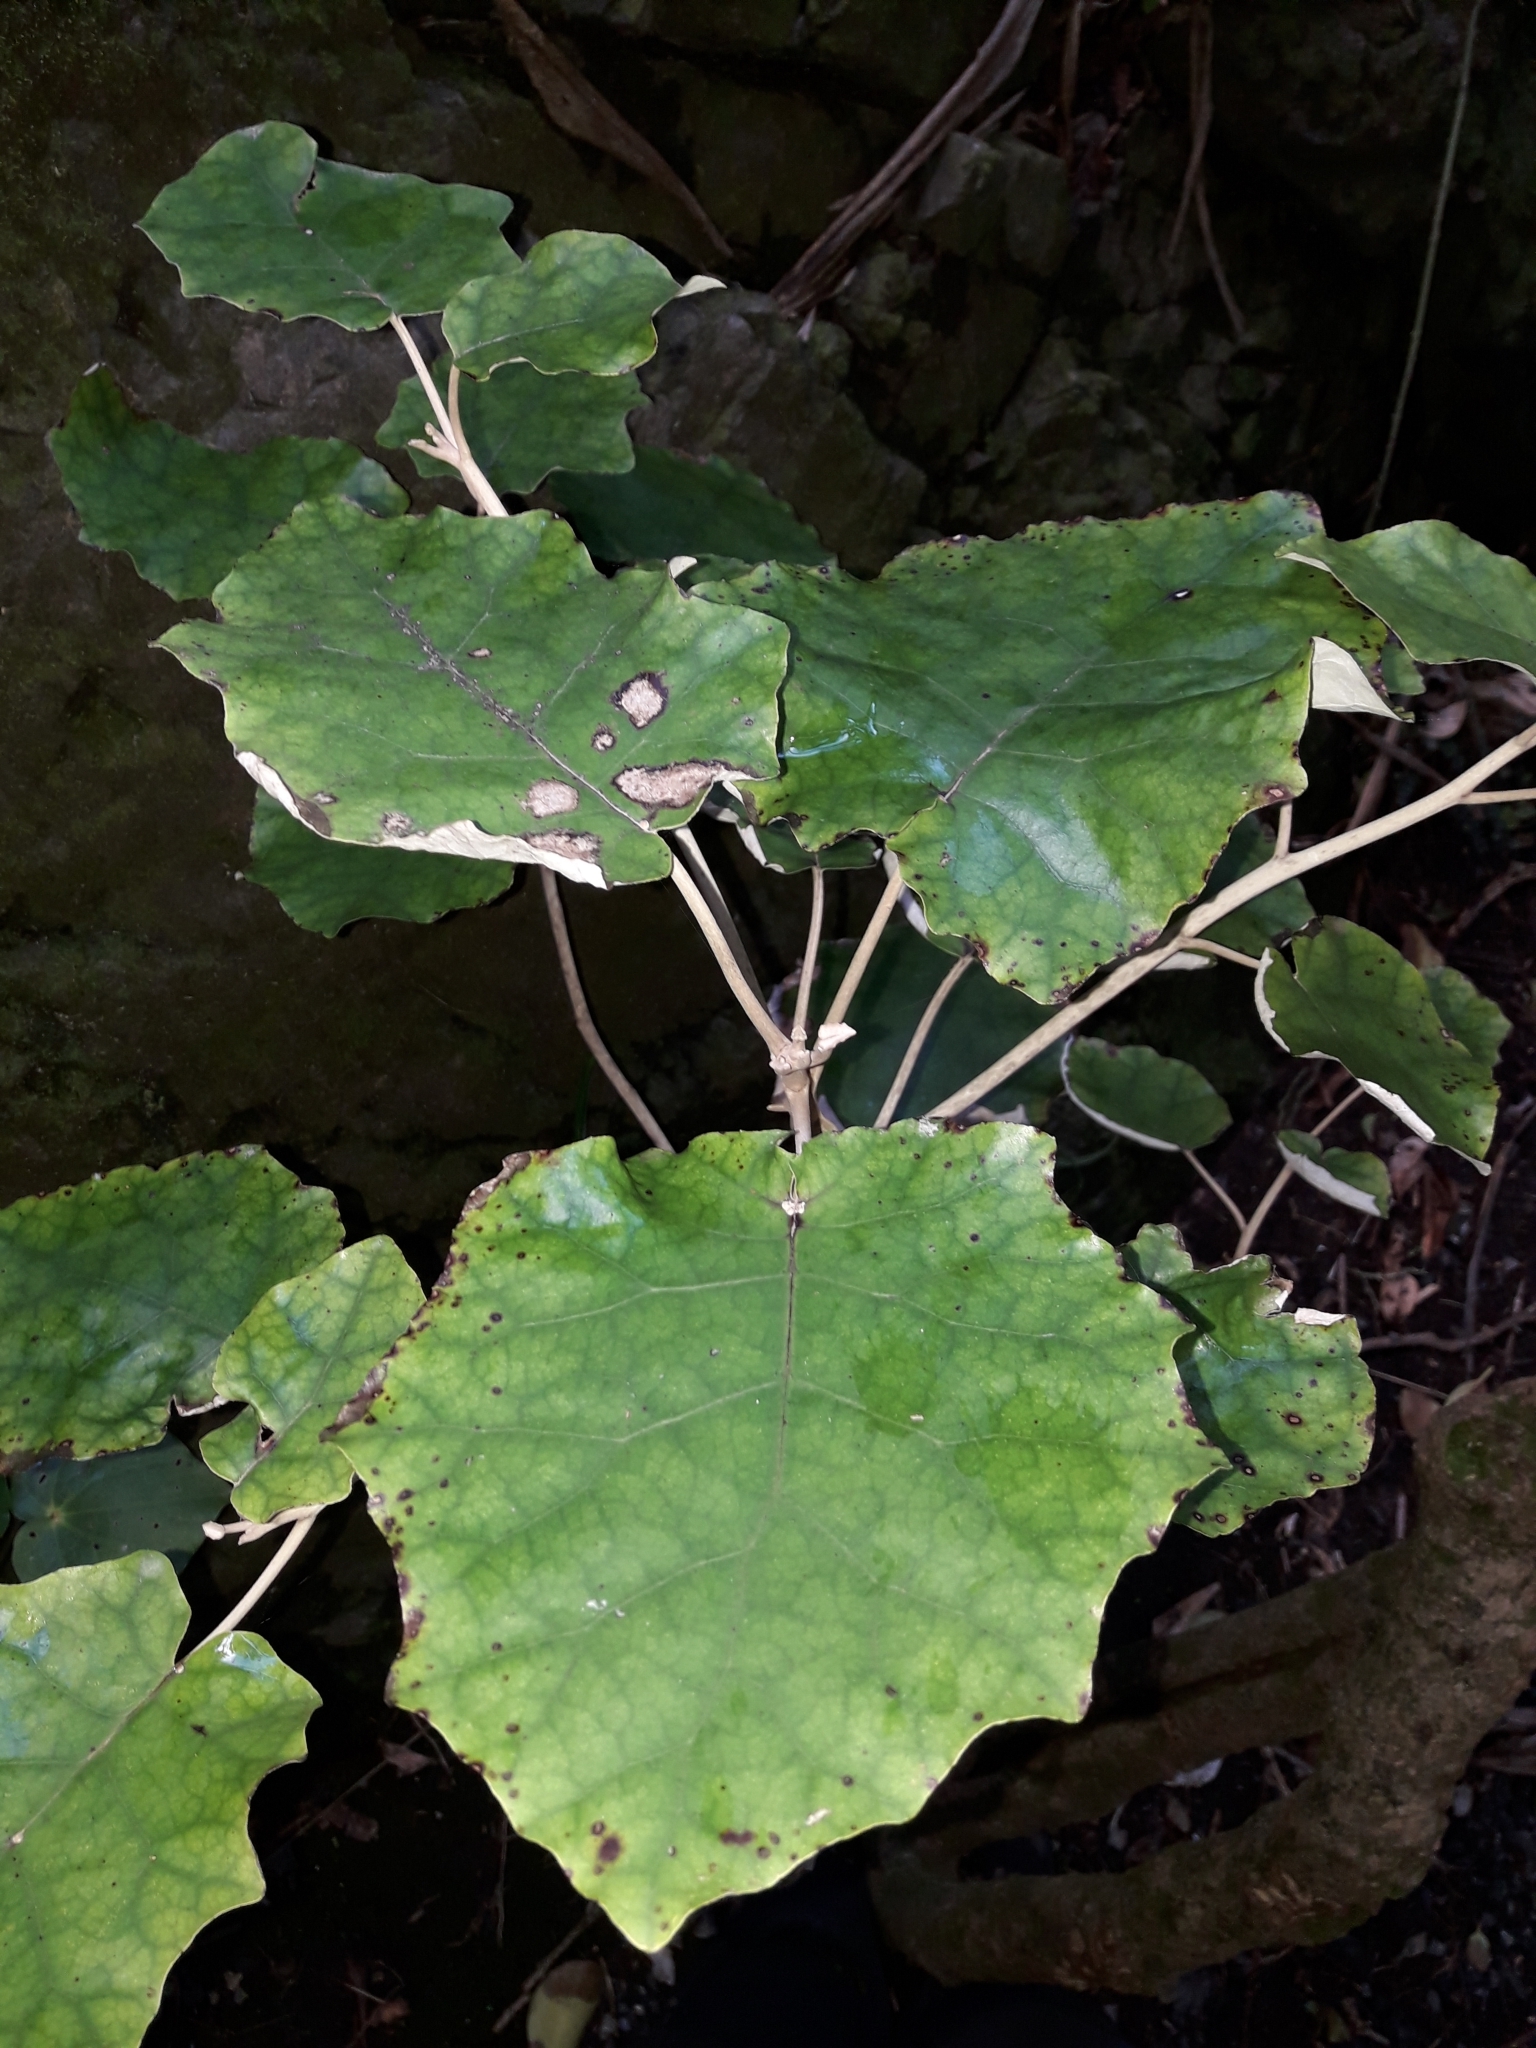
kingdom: Plantae
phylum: Tracheophyta
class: Magnoliopsida
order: Asterales
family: Asteraceae
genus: Brachyglottis
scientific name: Brachyglottis repanda
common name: Hedge ragwort
